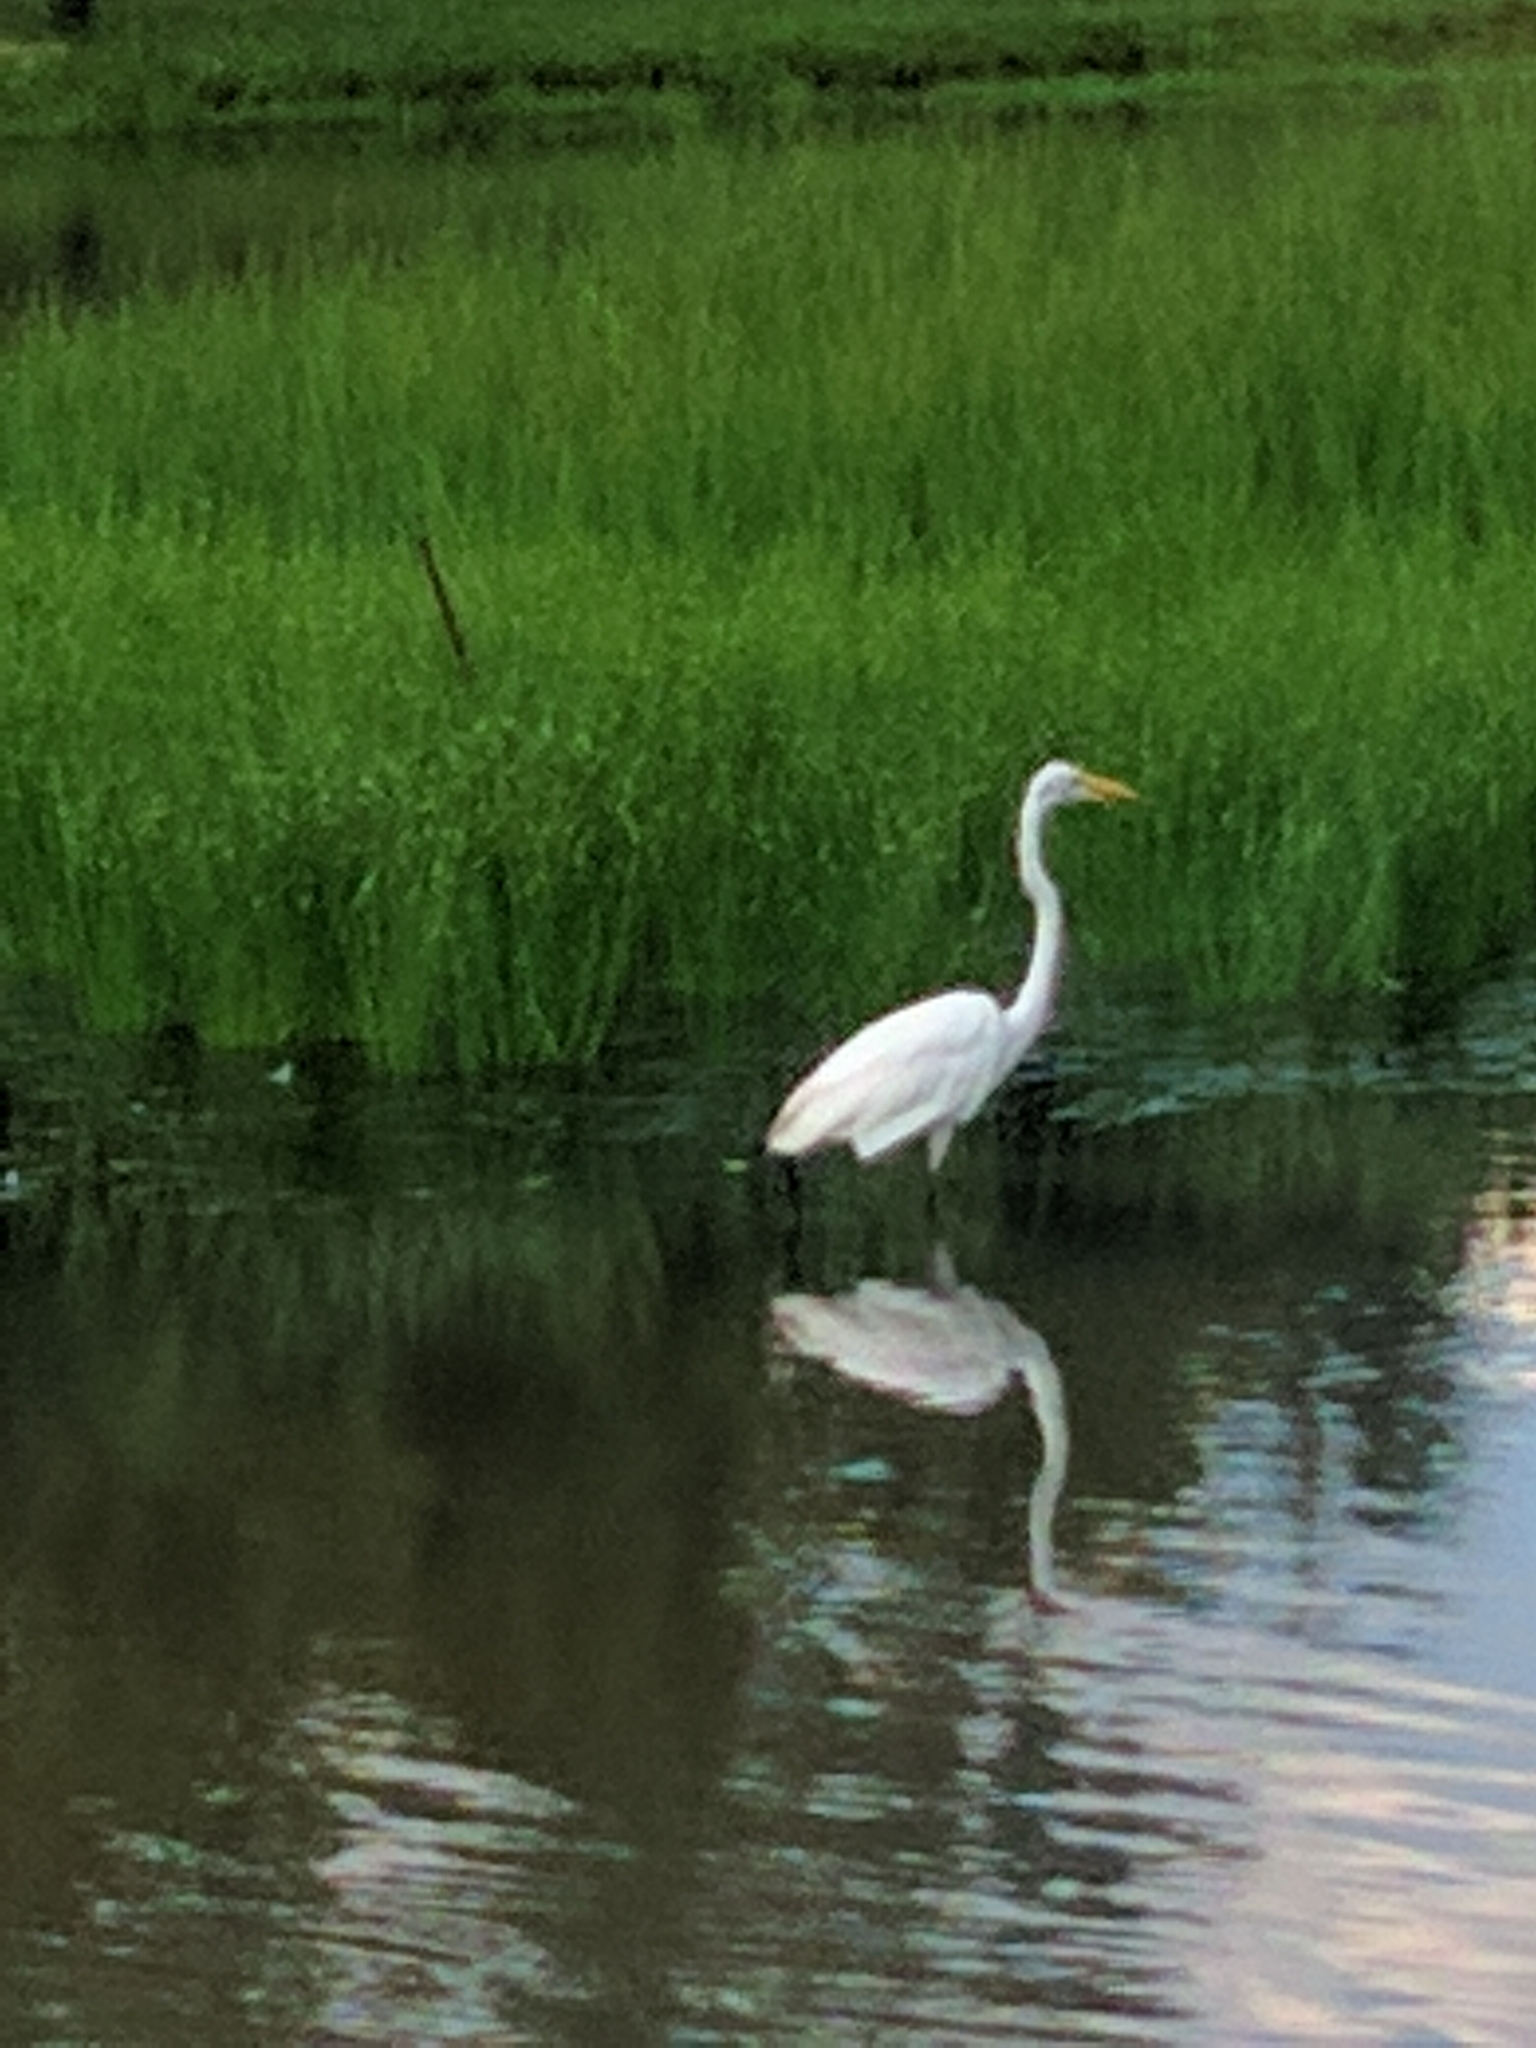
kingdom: Animalia
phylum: Chordata
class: Aves
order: Pelecaniformes
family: Ardeidae
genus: Ardea
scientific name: Ardea alba
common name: Great egret
